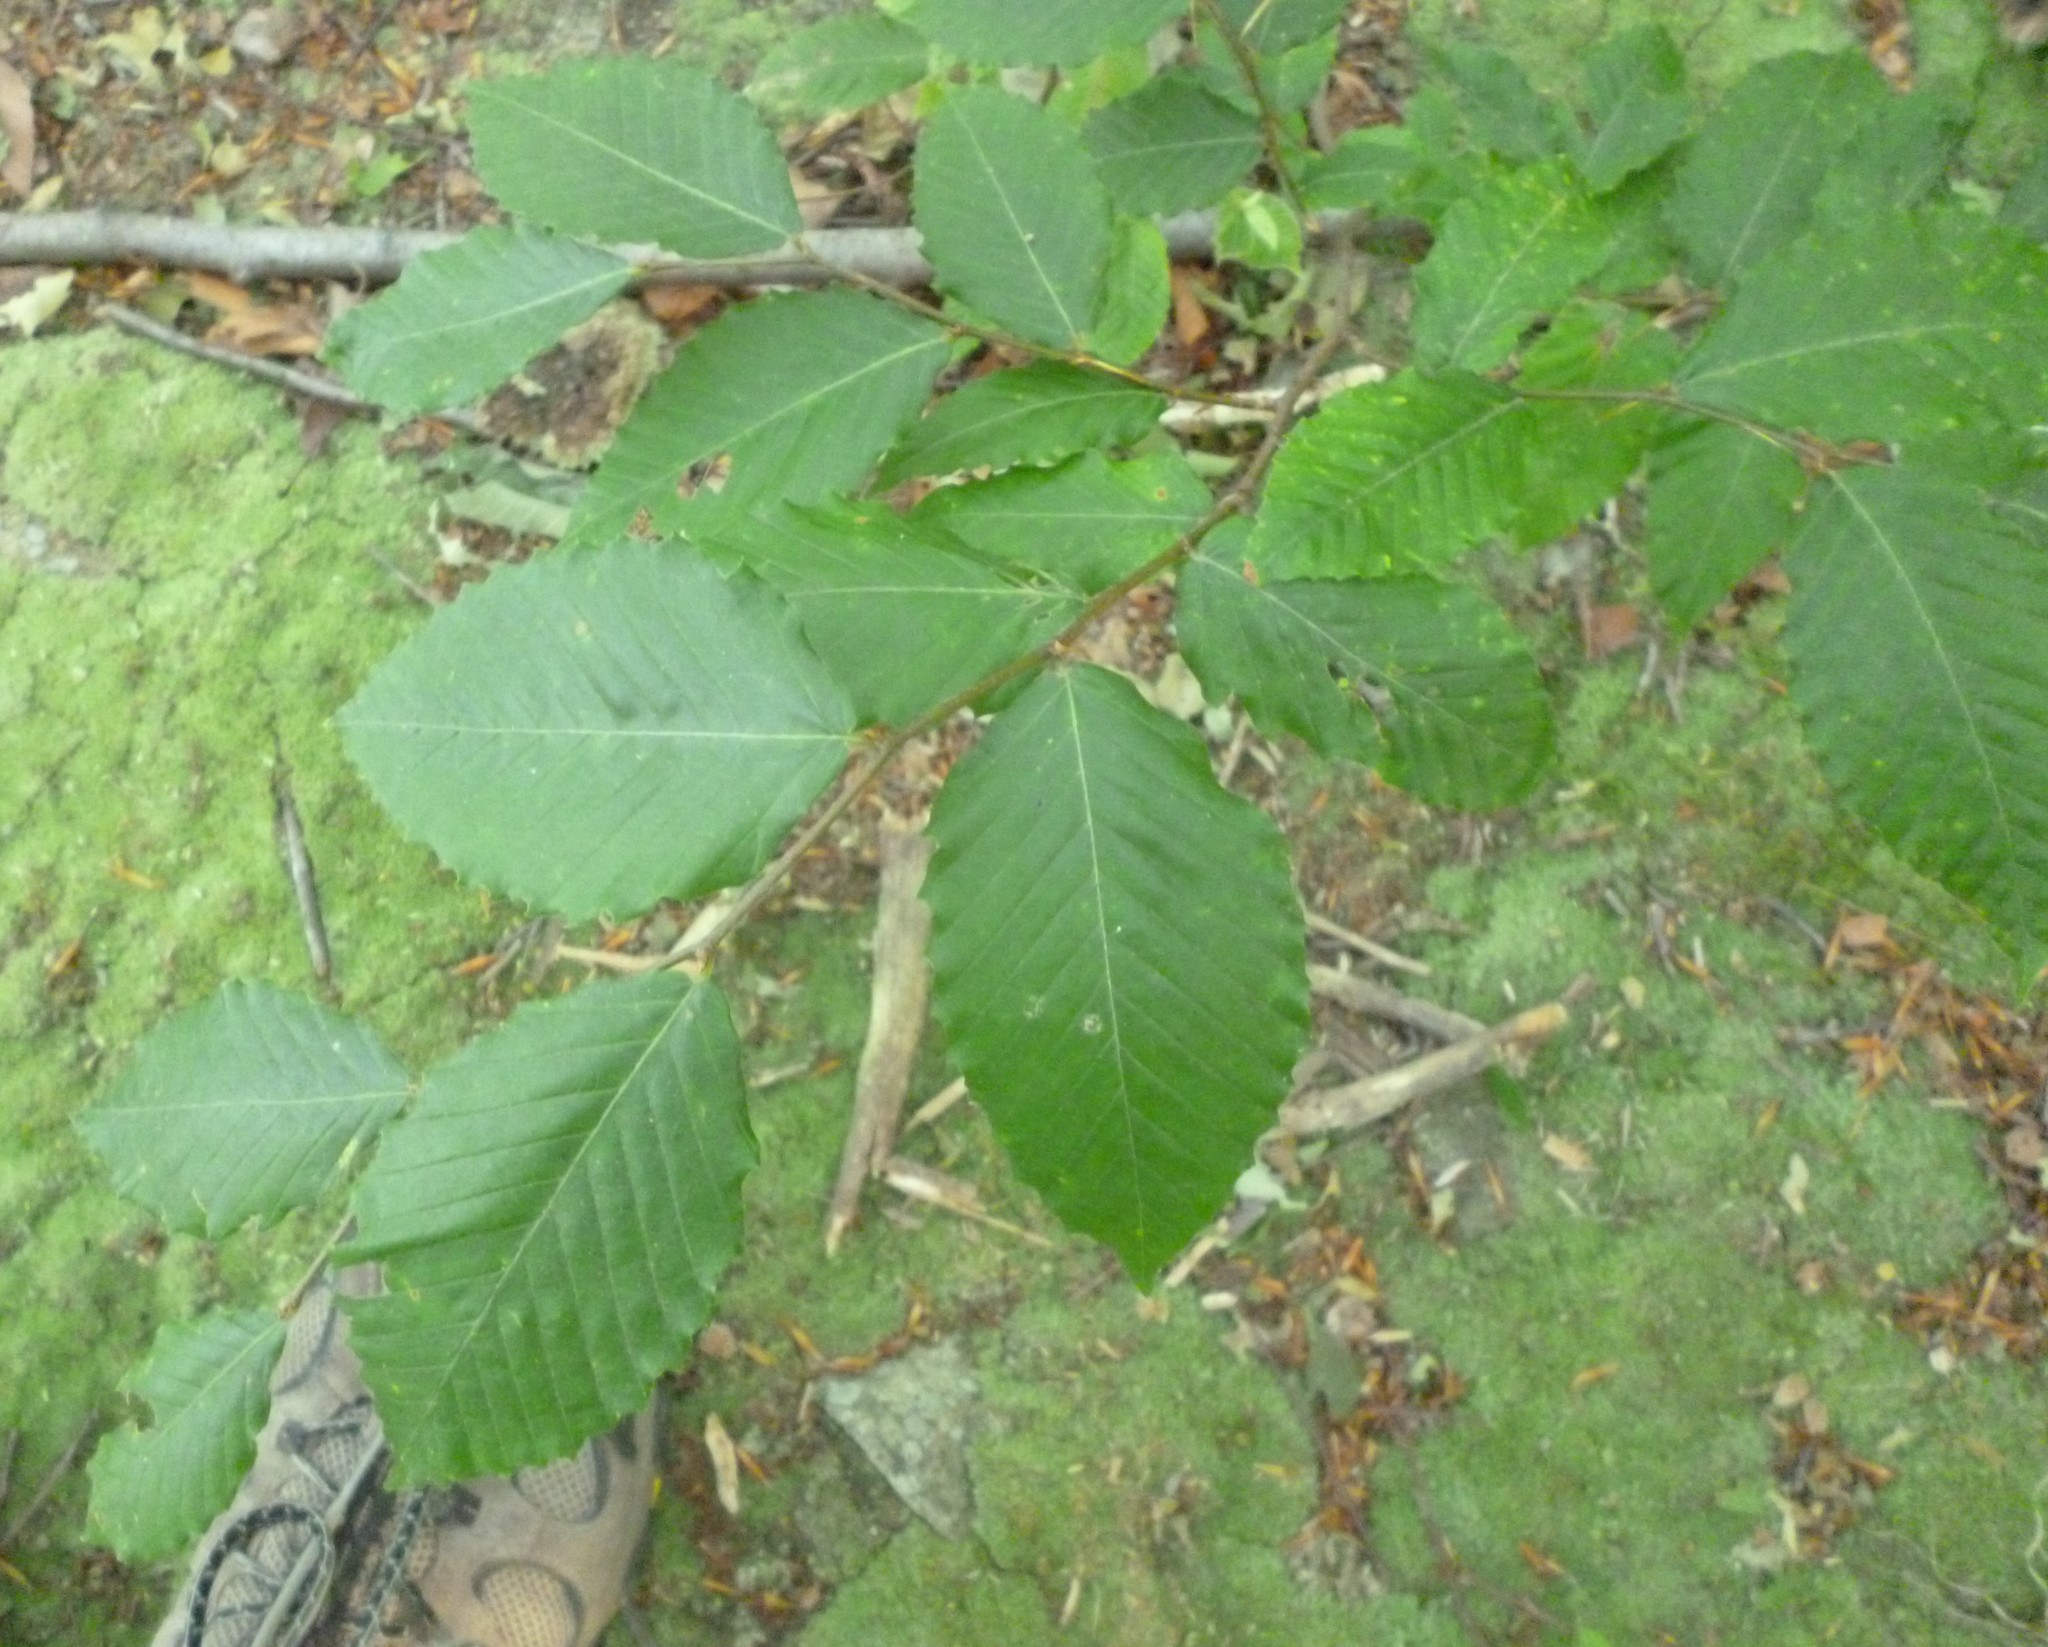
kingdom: Plantae
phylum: Tracheophyta
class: Magnoliopsida
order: Fagales
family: Fagaceae
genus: Fagus
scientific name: Fagus grandifolia
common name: American beech
